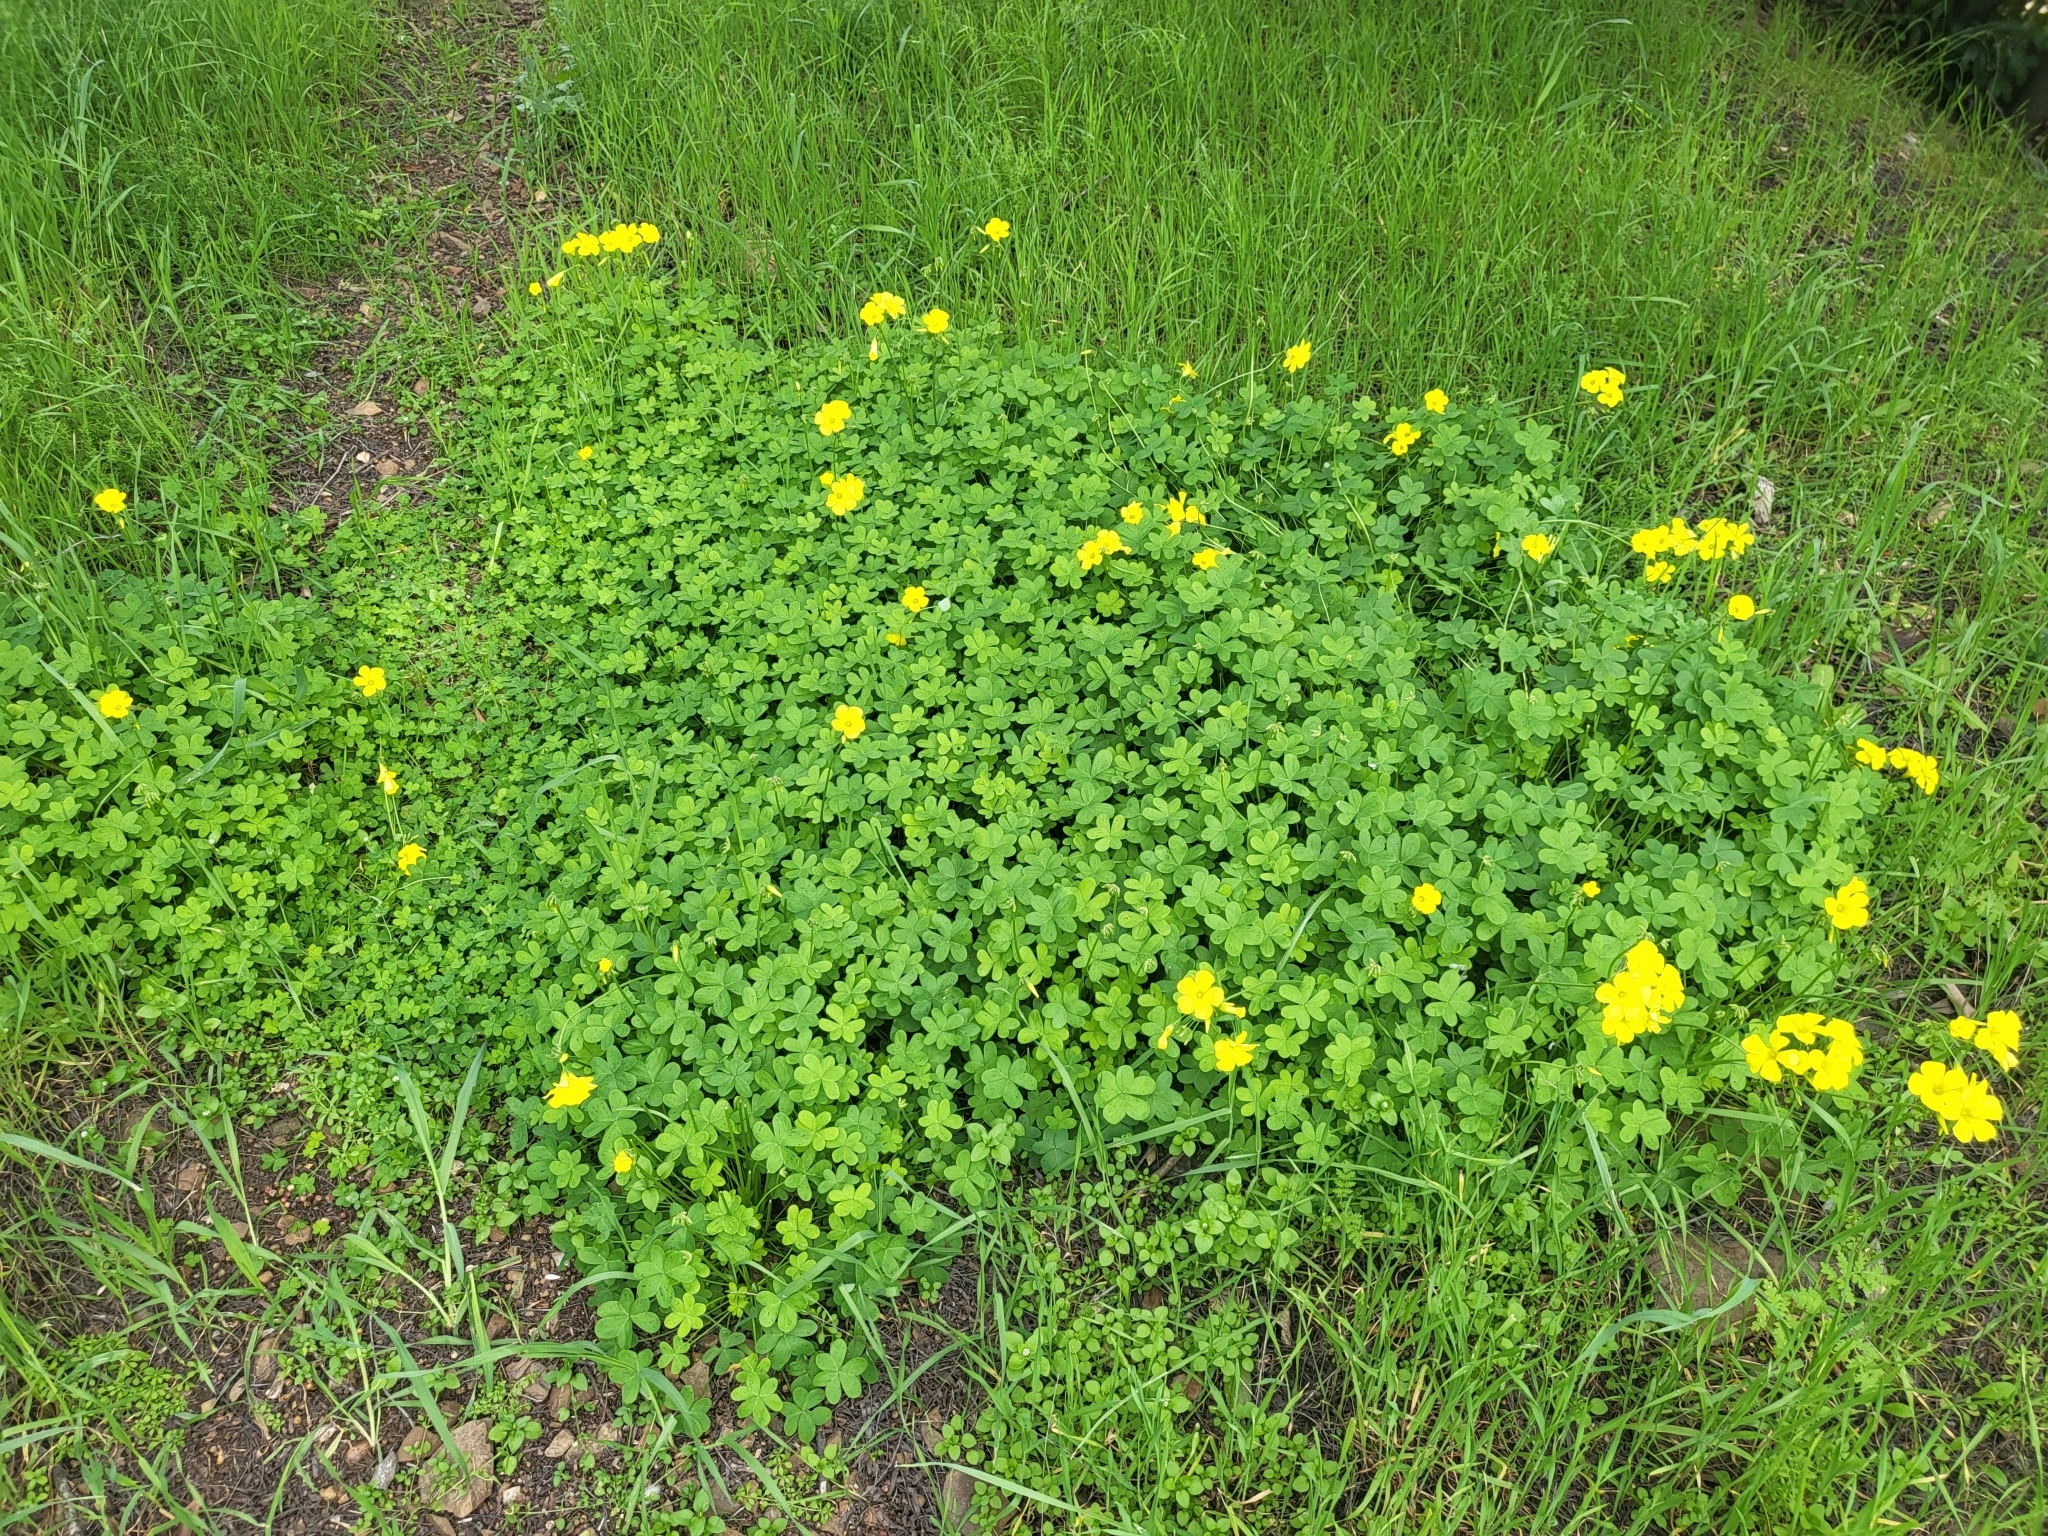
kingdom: Plantae
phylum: Tracheophyta
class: Magnoliopsida
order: Oxalidales
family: Oxalidaceae
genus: Oxalis
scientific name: Oxalis pes-caprae
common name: Bermuda-buttercup
